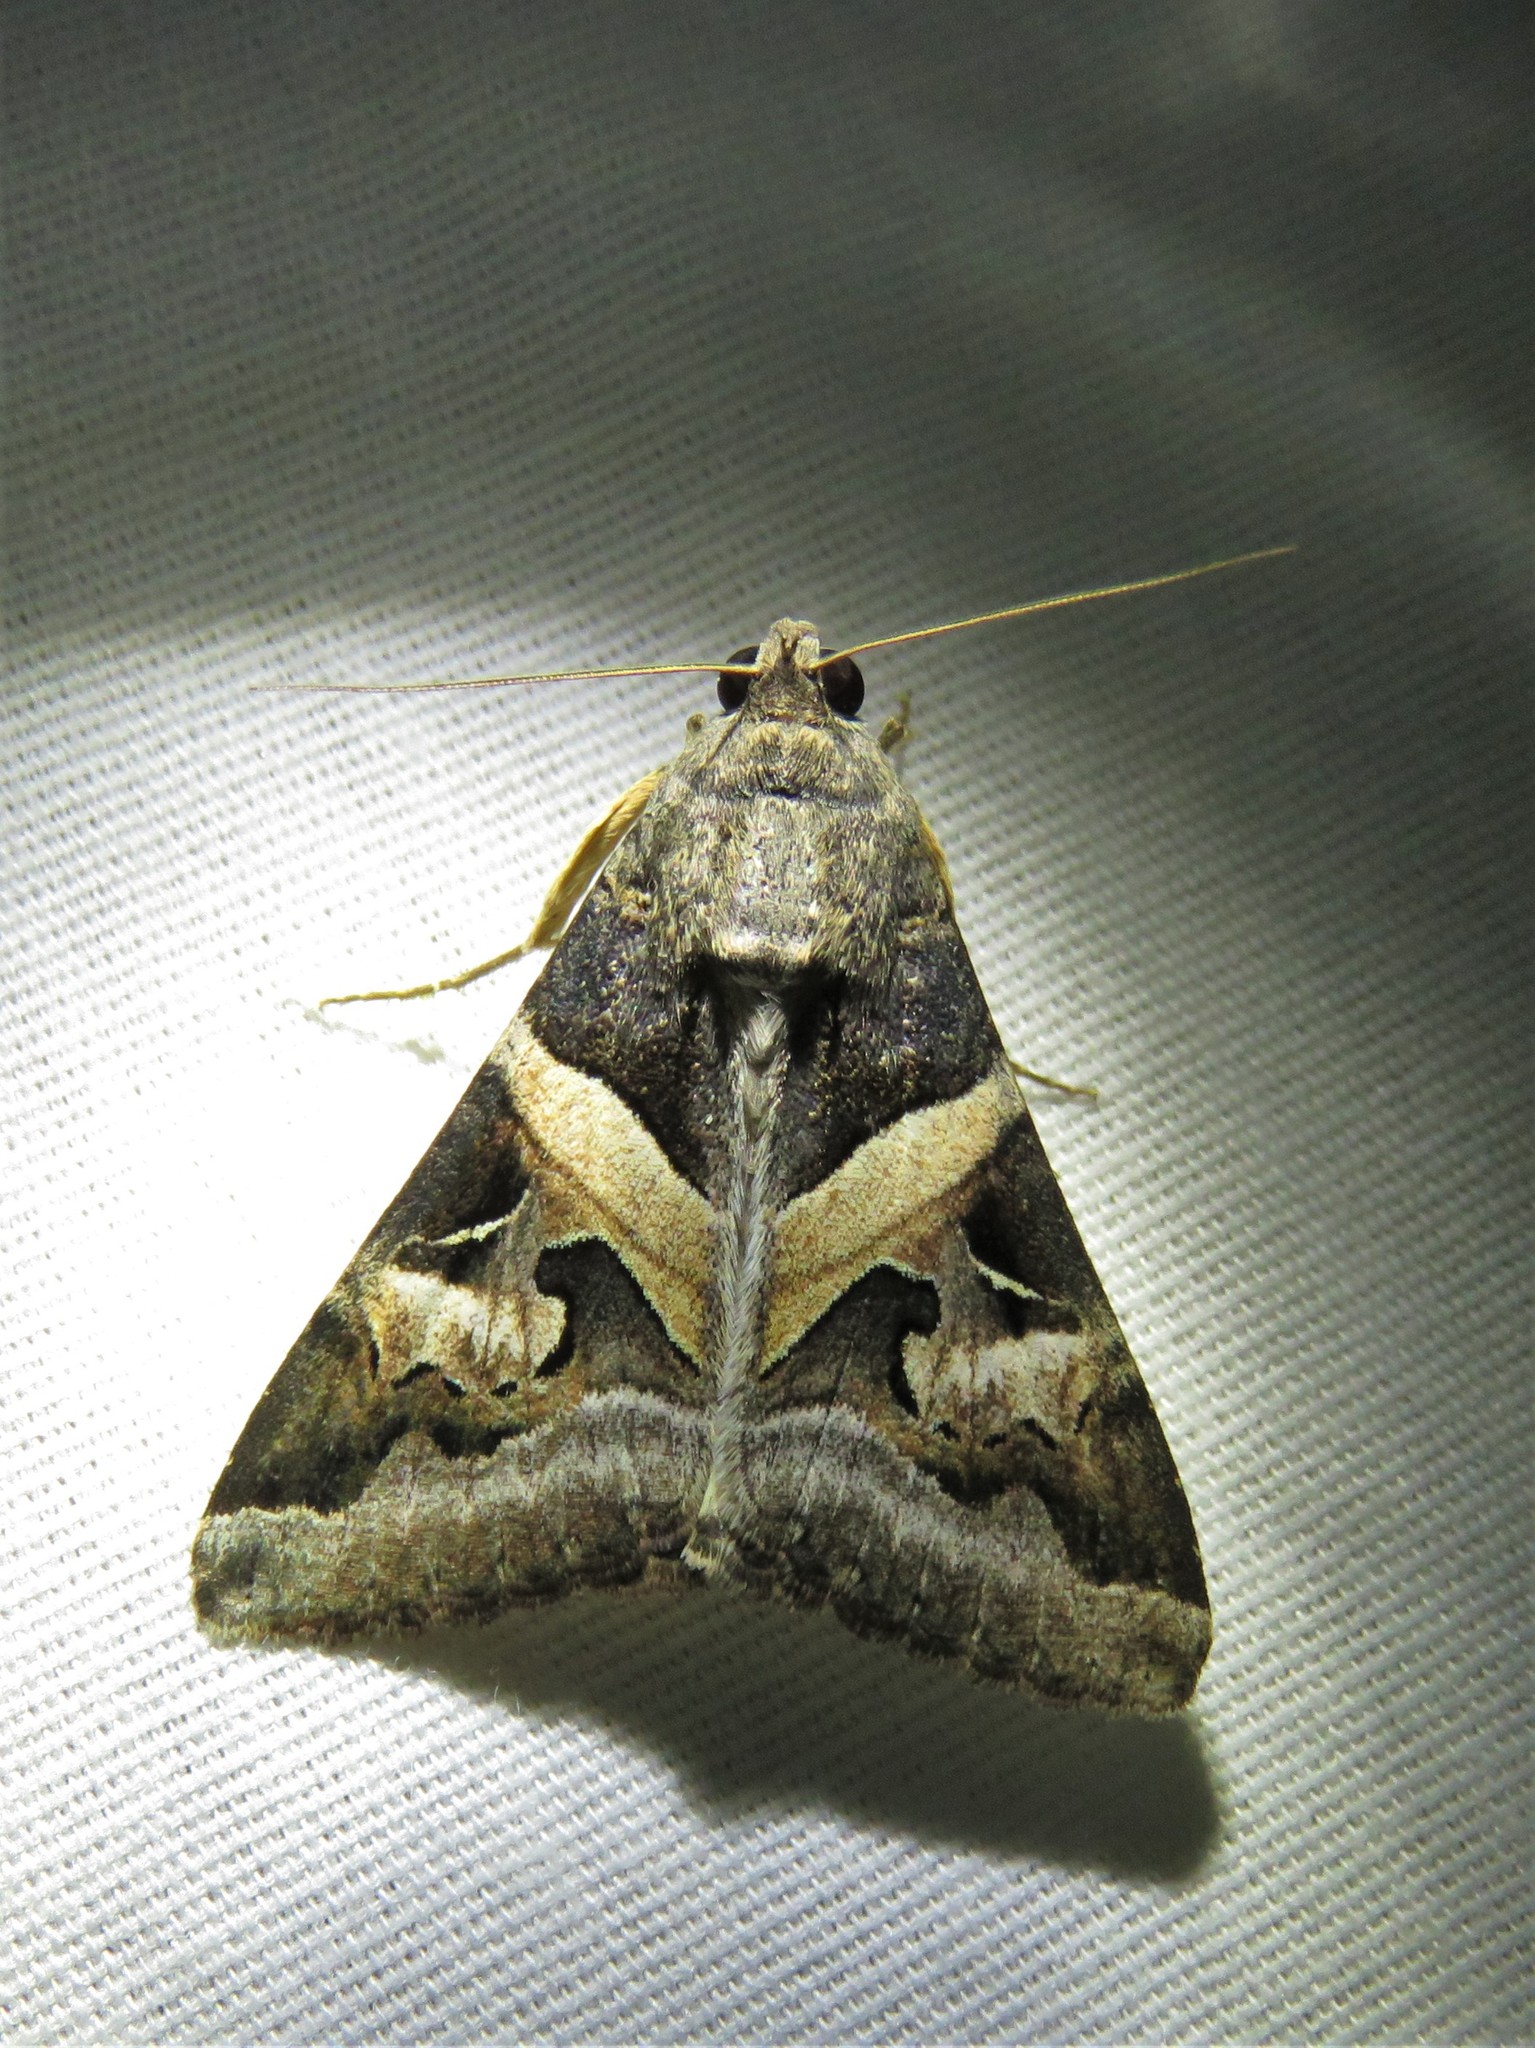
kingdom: Animalia
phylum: Arthropoda
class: Insecta
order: Lepidoptera
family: Erebidae
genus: Melipotis
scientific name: Melipotis indomita
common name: Moth
